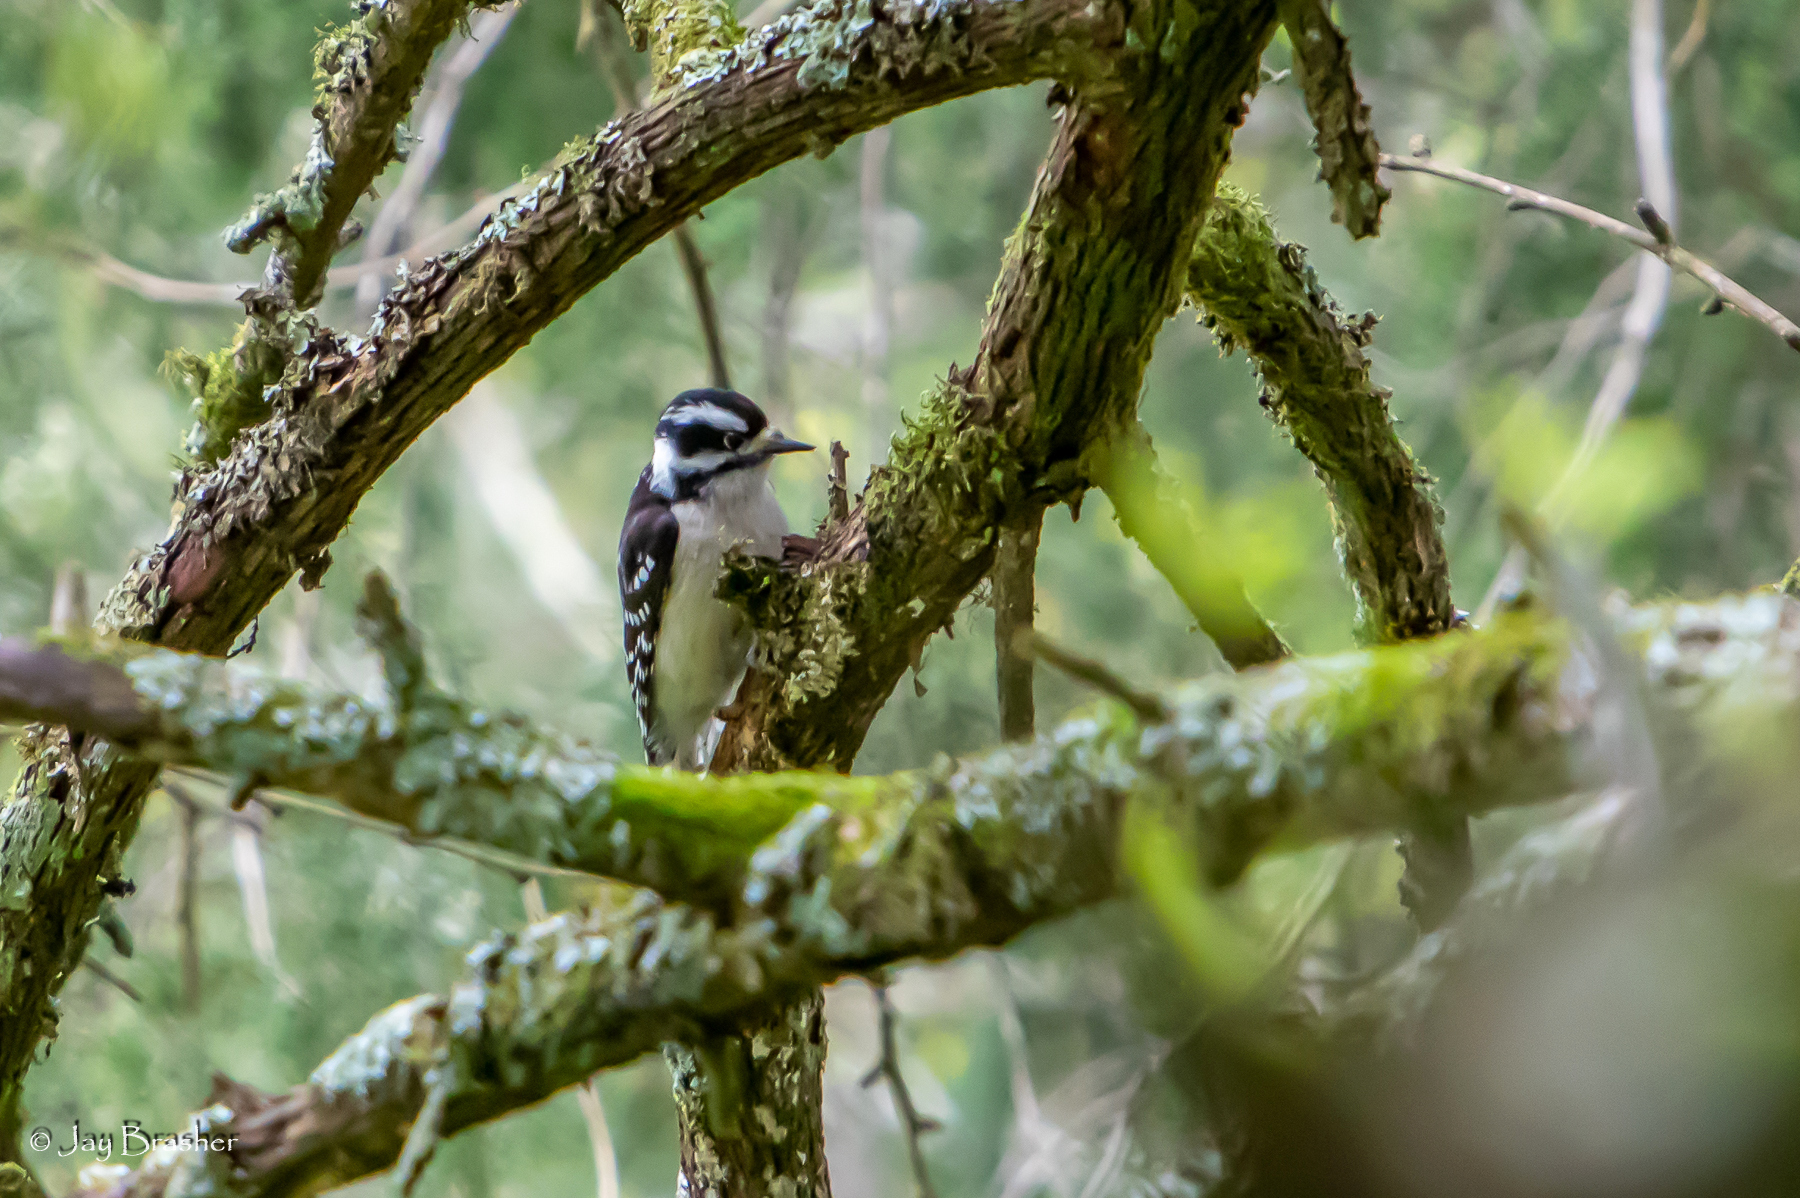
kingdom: Animalia
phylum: Chordata
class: Aves
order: Piciformes
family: Picidae
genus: Dryobates
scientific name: Dryobates pubescens
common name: Downy woodpecker
